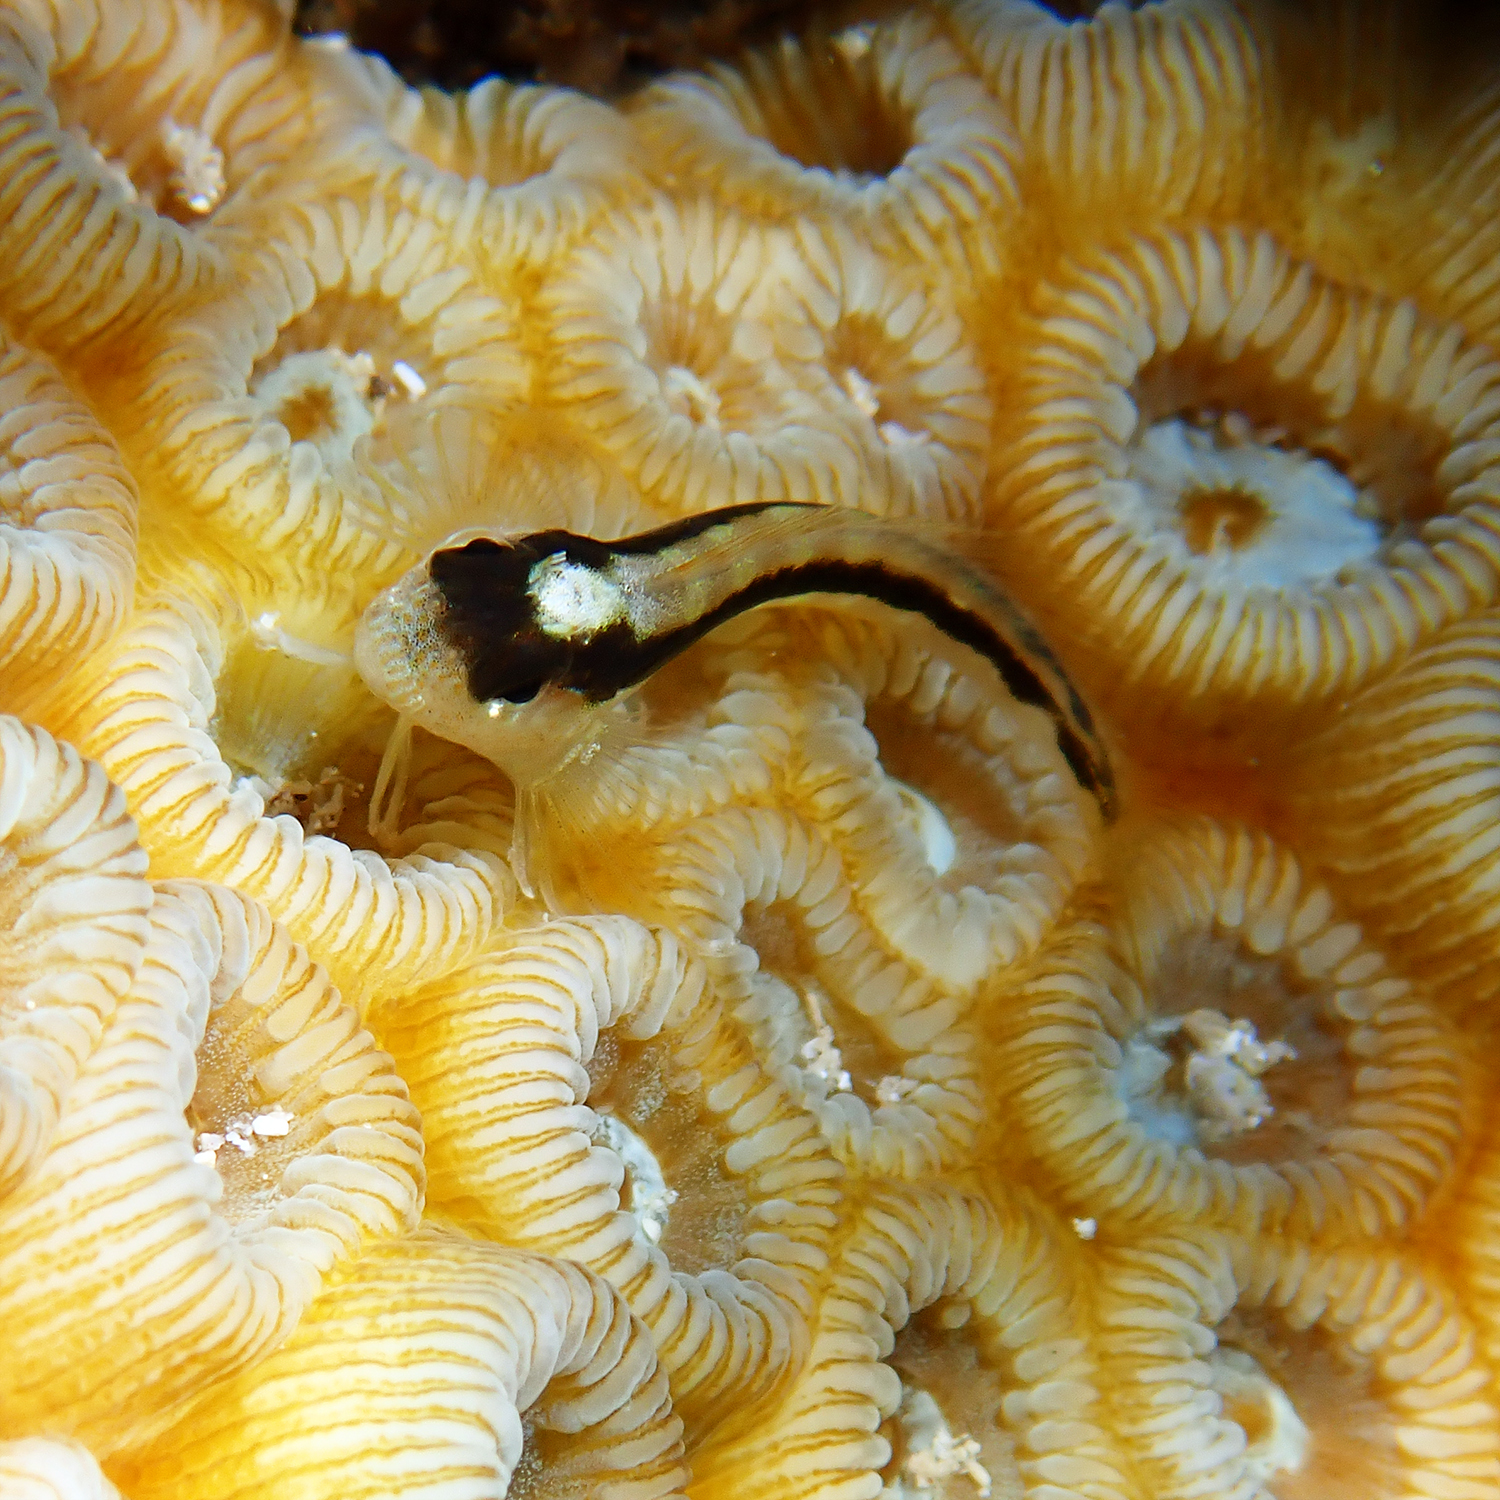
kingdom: Animalia
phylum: Chordata
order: Perciformes
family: Blenniidae
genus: Parablennius
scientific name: Parablennius serratolineatus
